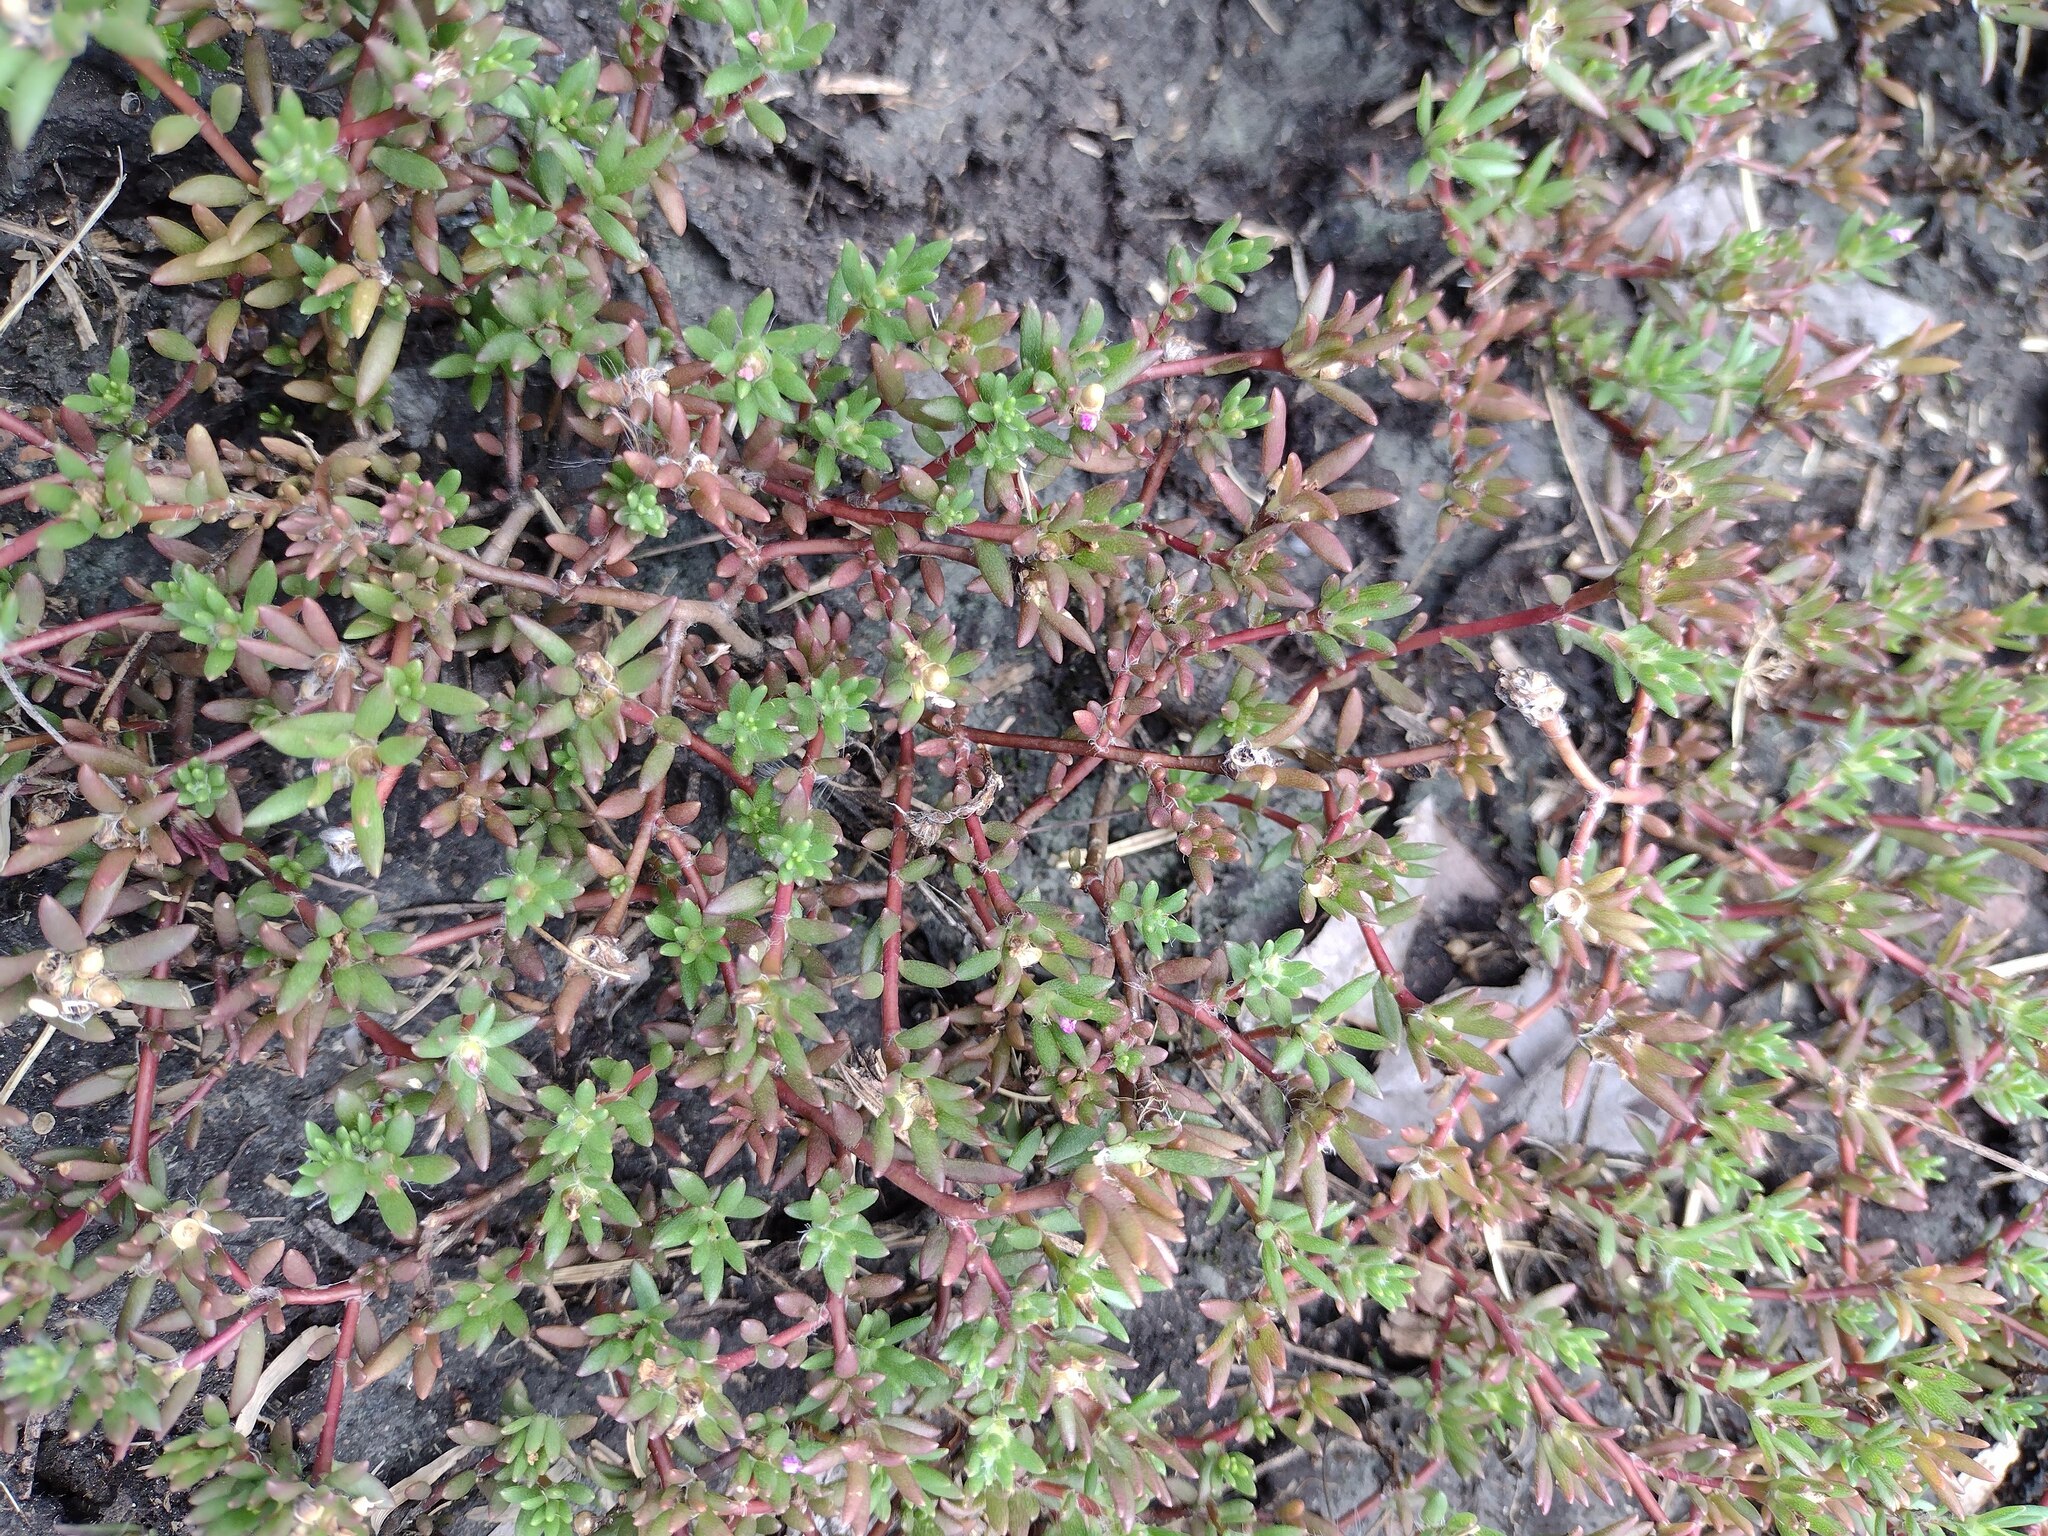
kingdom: Plantae
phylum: Tracheophyta
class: Magnoliopsida
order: Caryophyllales
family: Portulacaceae
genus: Portulaca
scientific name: Portulaca pilosa
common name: Kiss me quick
